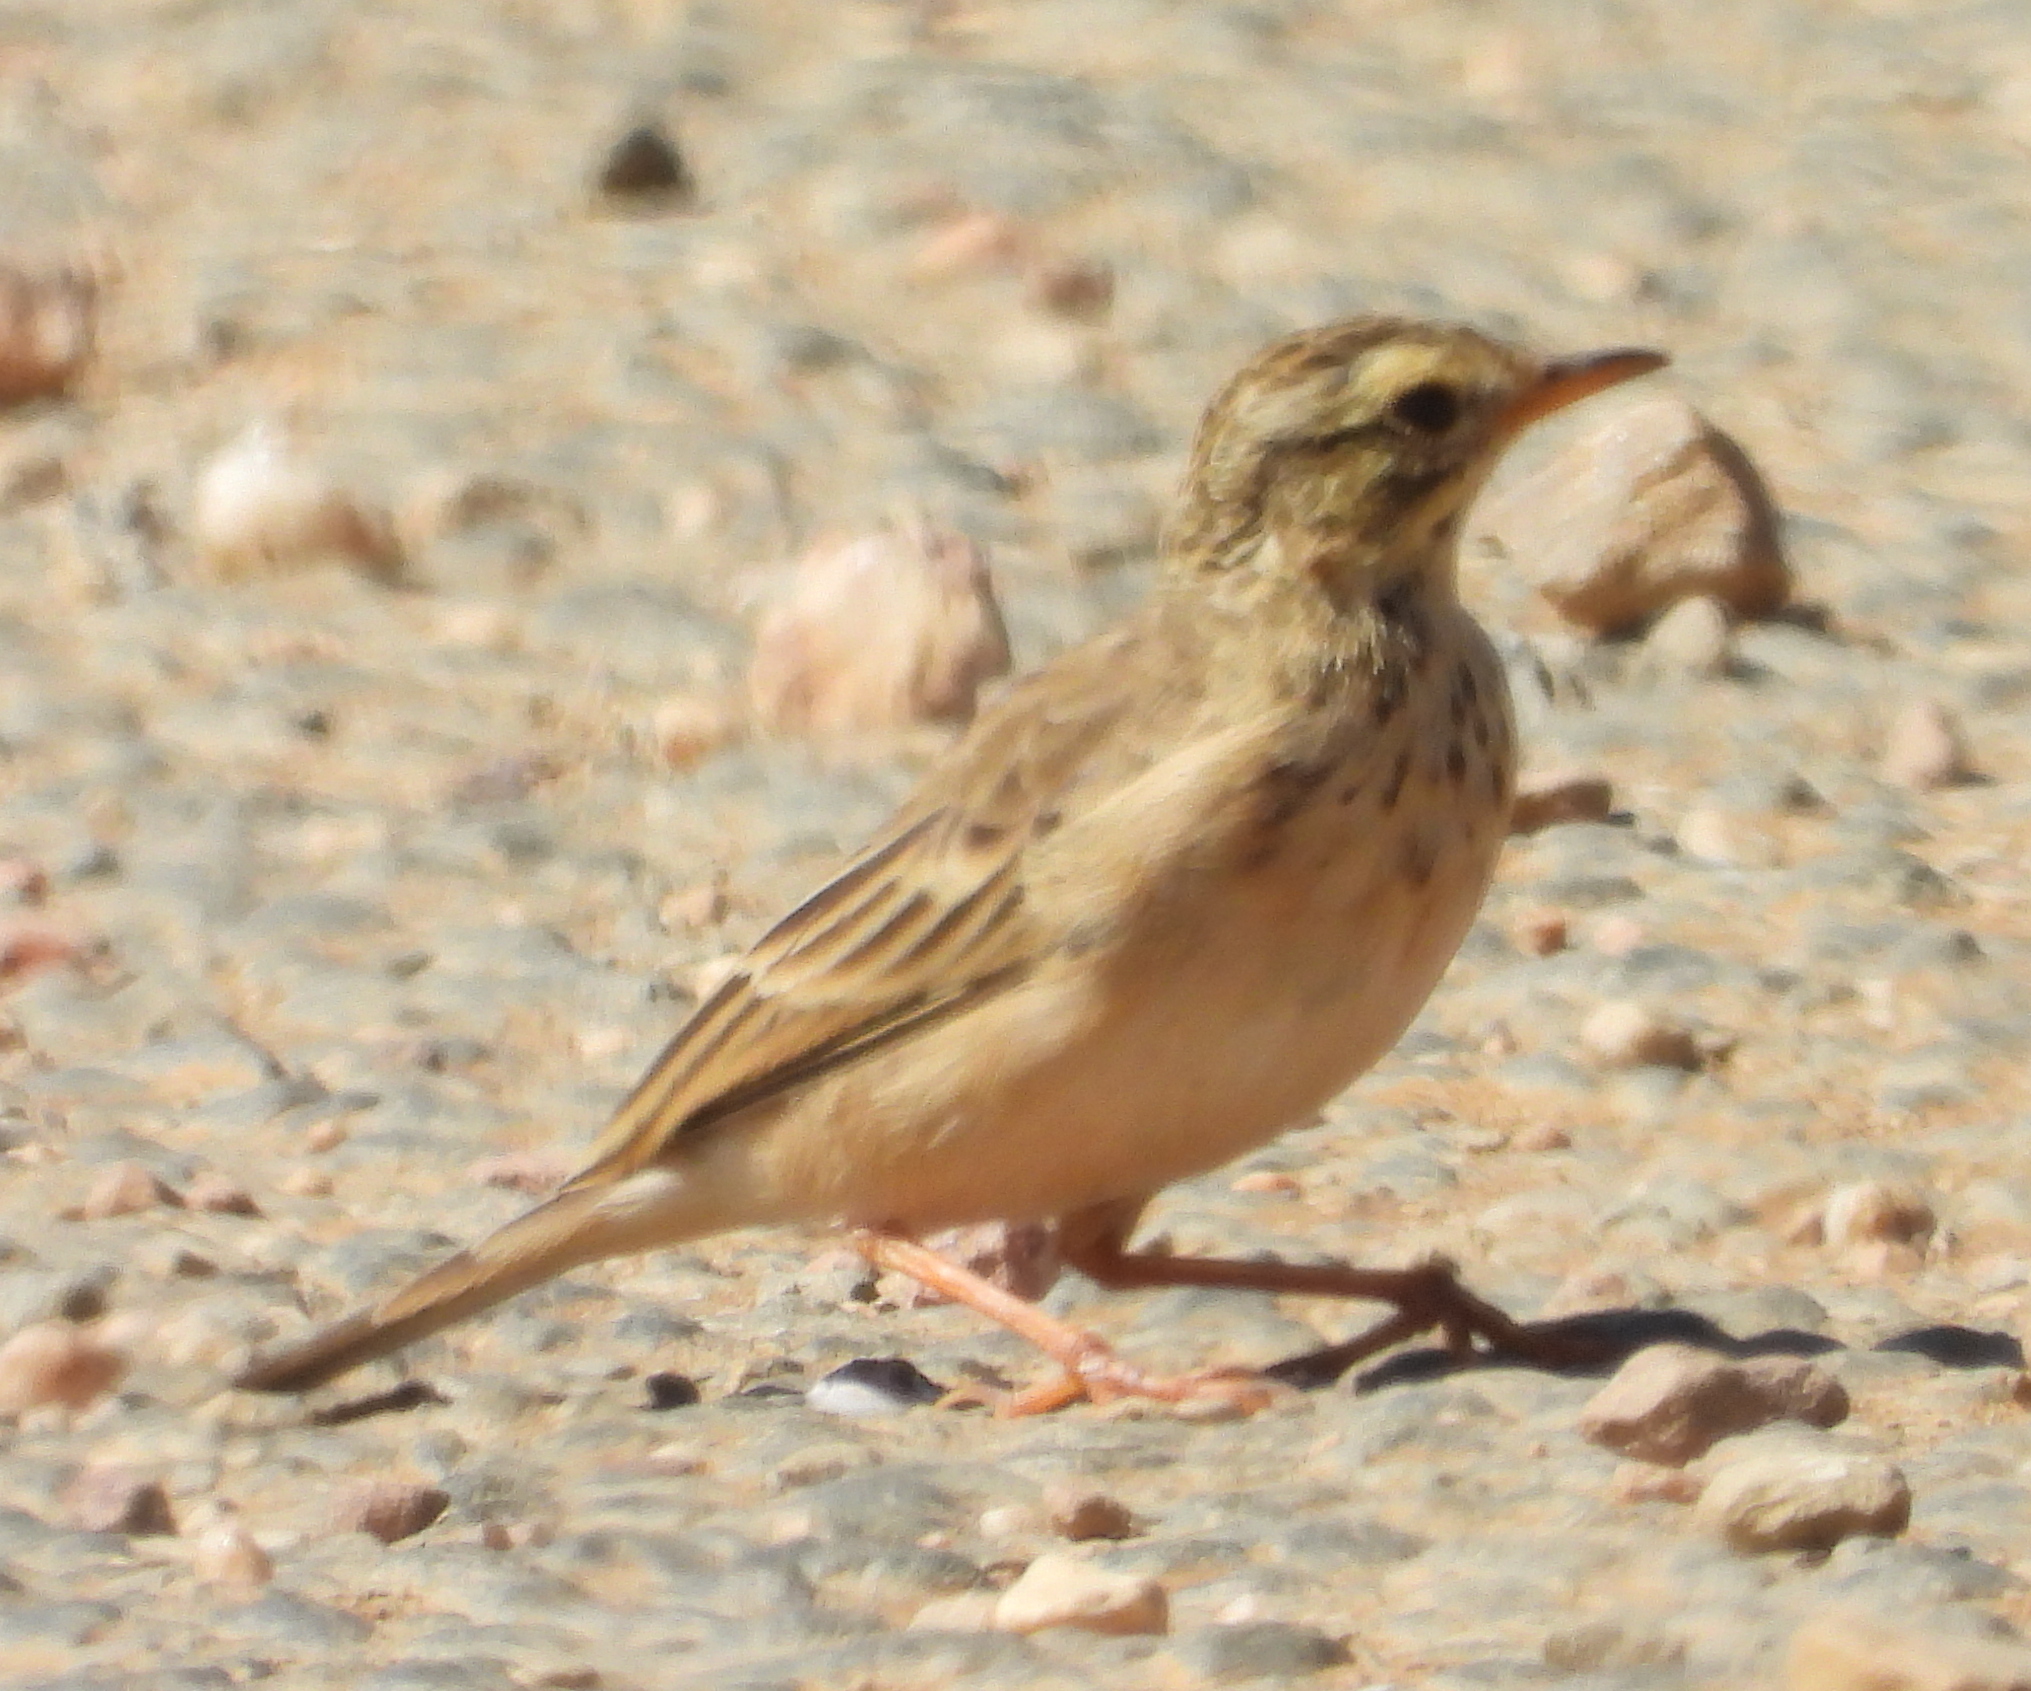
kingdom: Animalia
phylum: Chordata
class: Aves
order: Passeriformes
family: Motacillidae
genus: Anthus
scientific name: Anthus cinnamomeus
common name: African pipit
